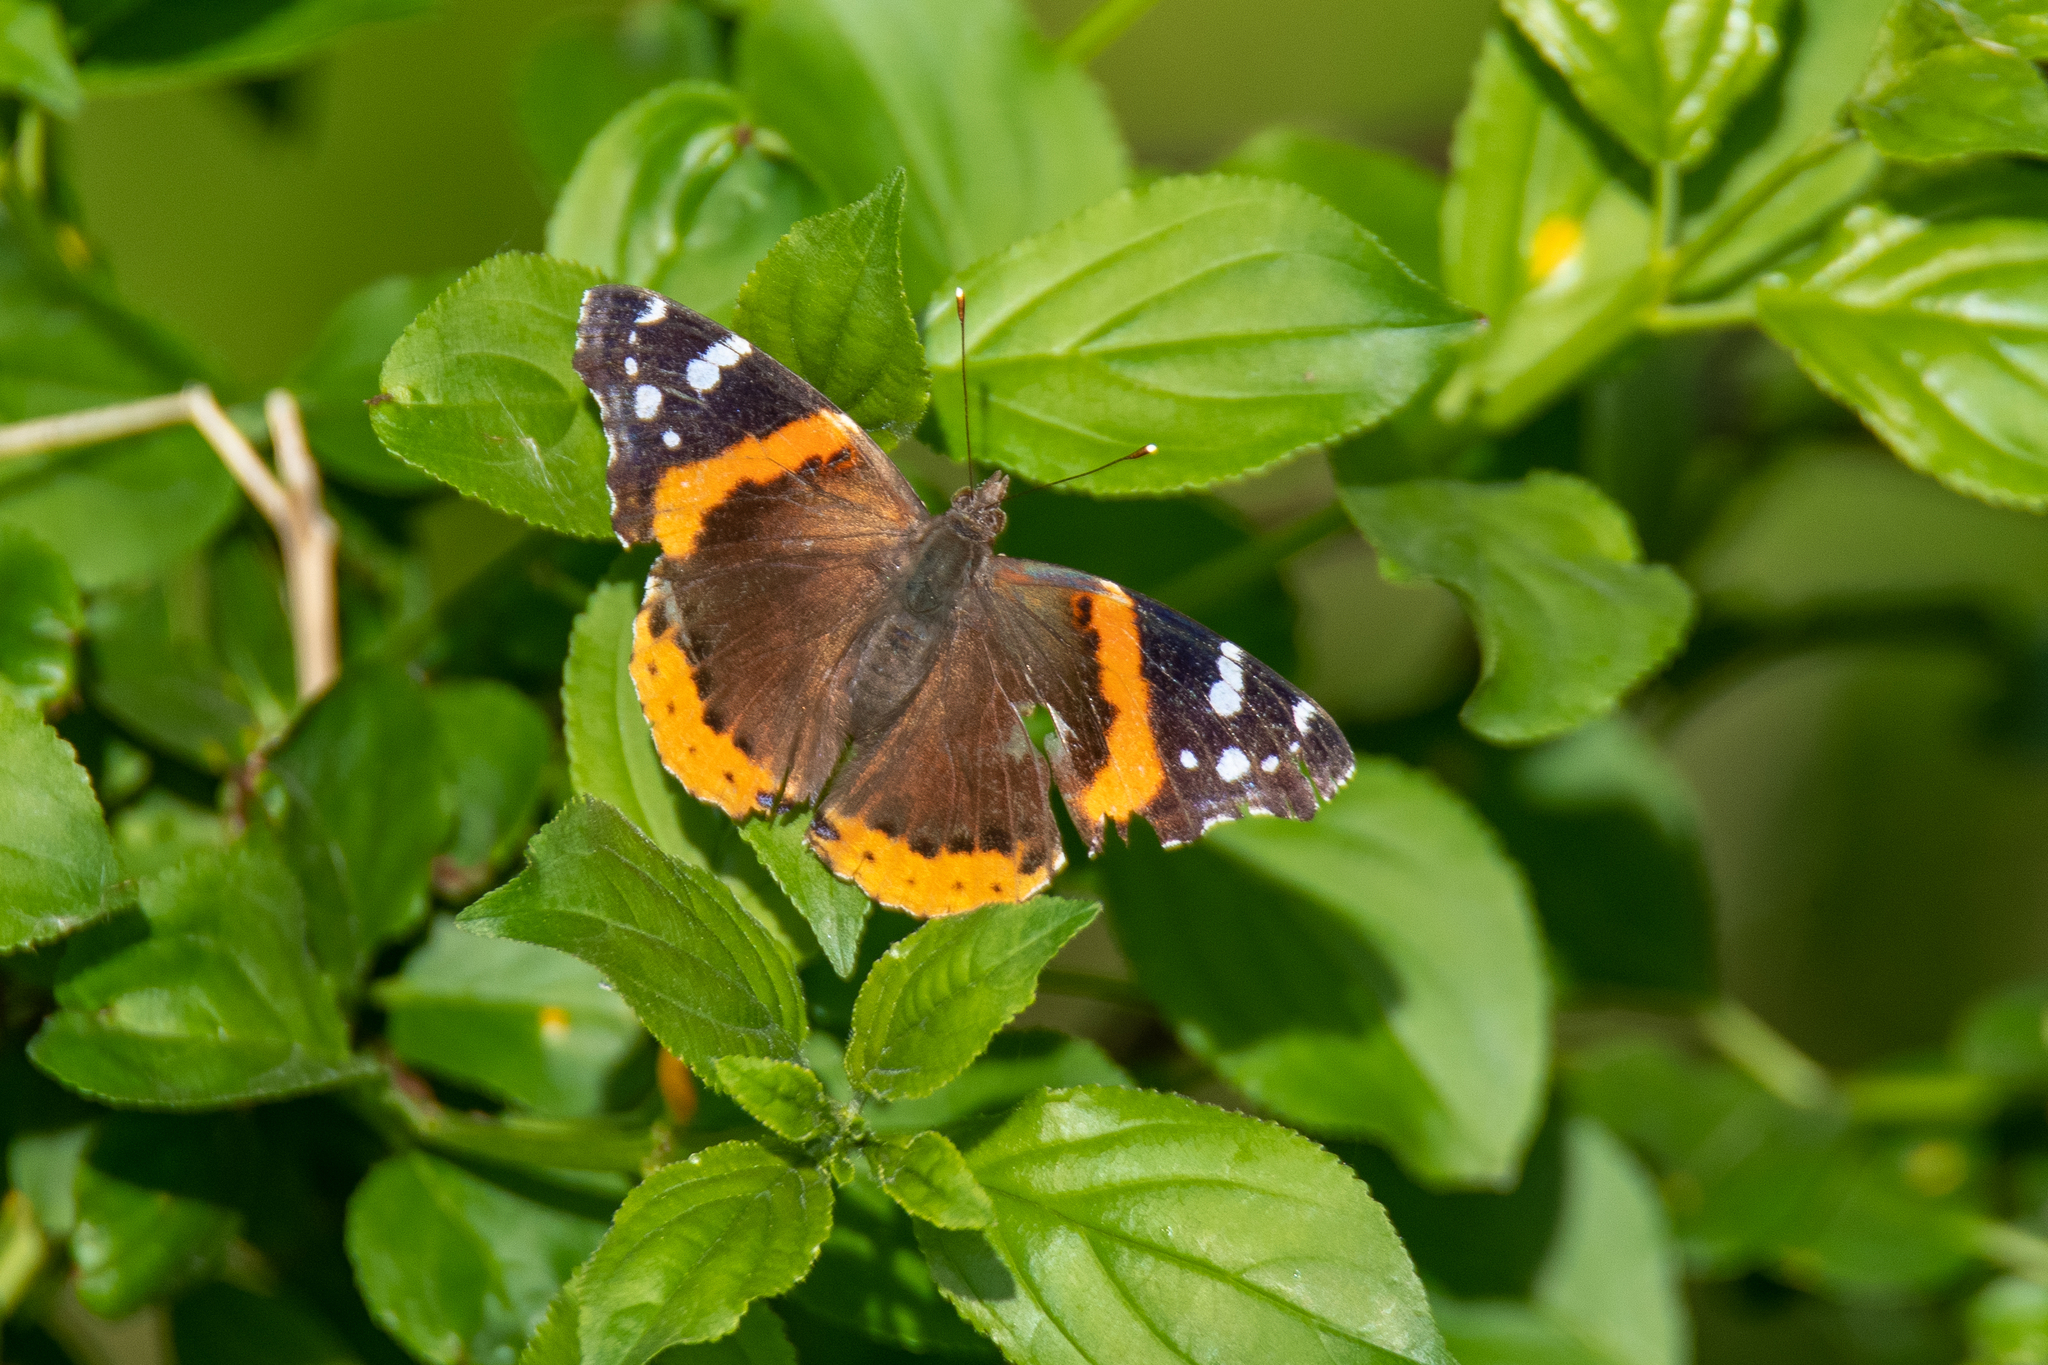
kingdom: Animalia
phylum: Arthropoda
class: Insecta
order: Lepidoptera
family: Nymphalidae
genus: Vanessa
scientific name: Vanessa atalanta
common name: Red admiral
